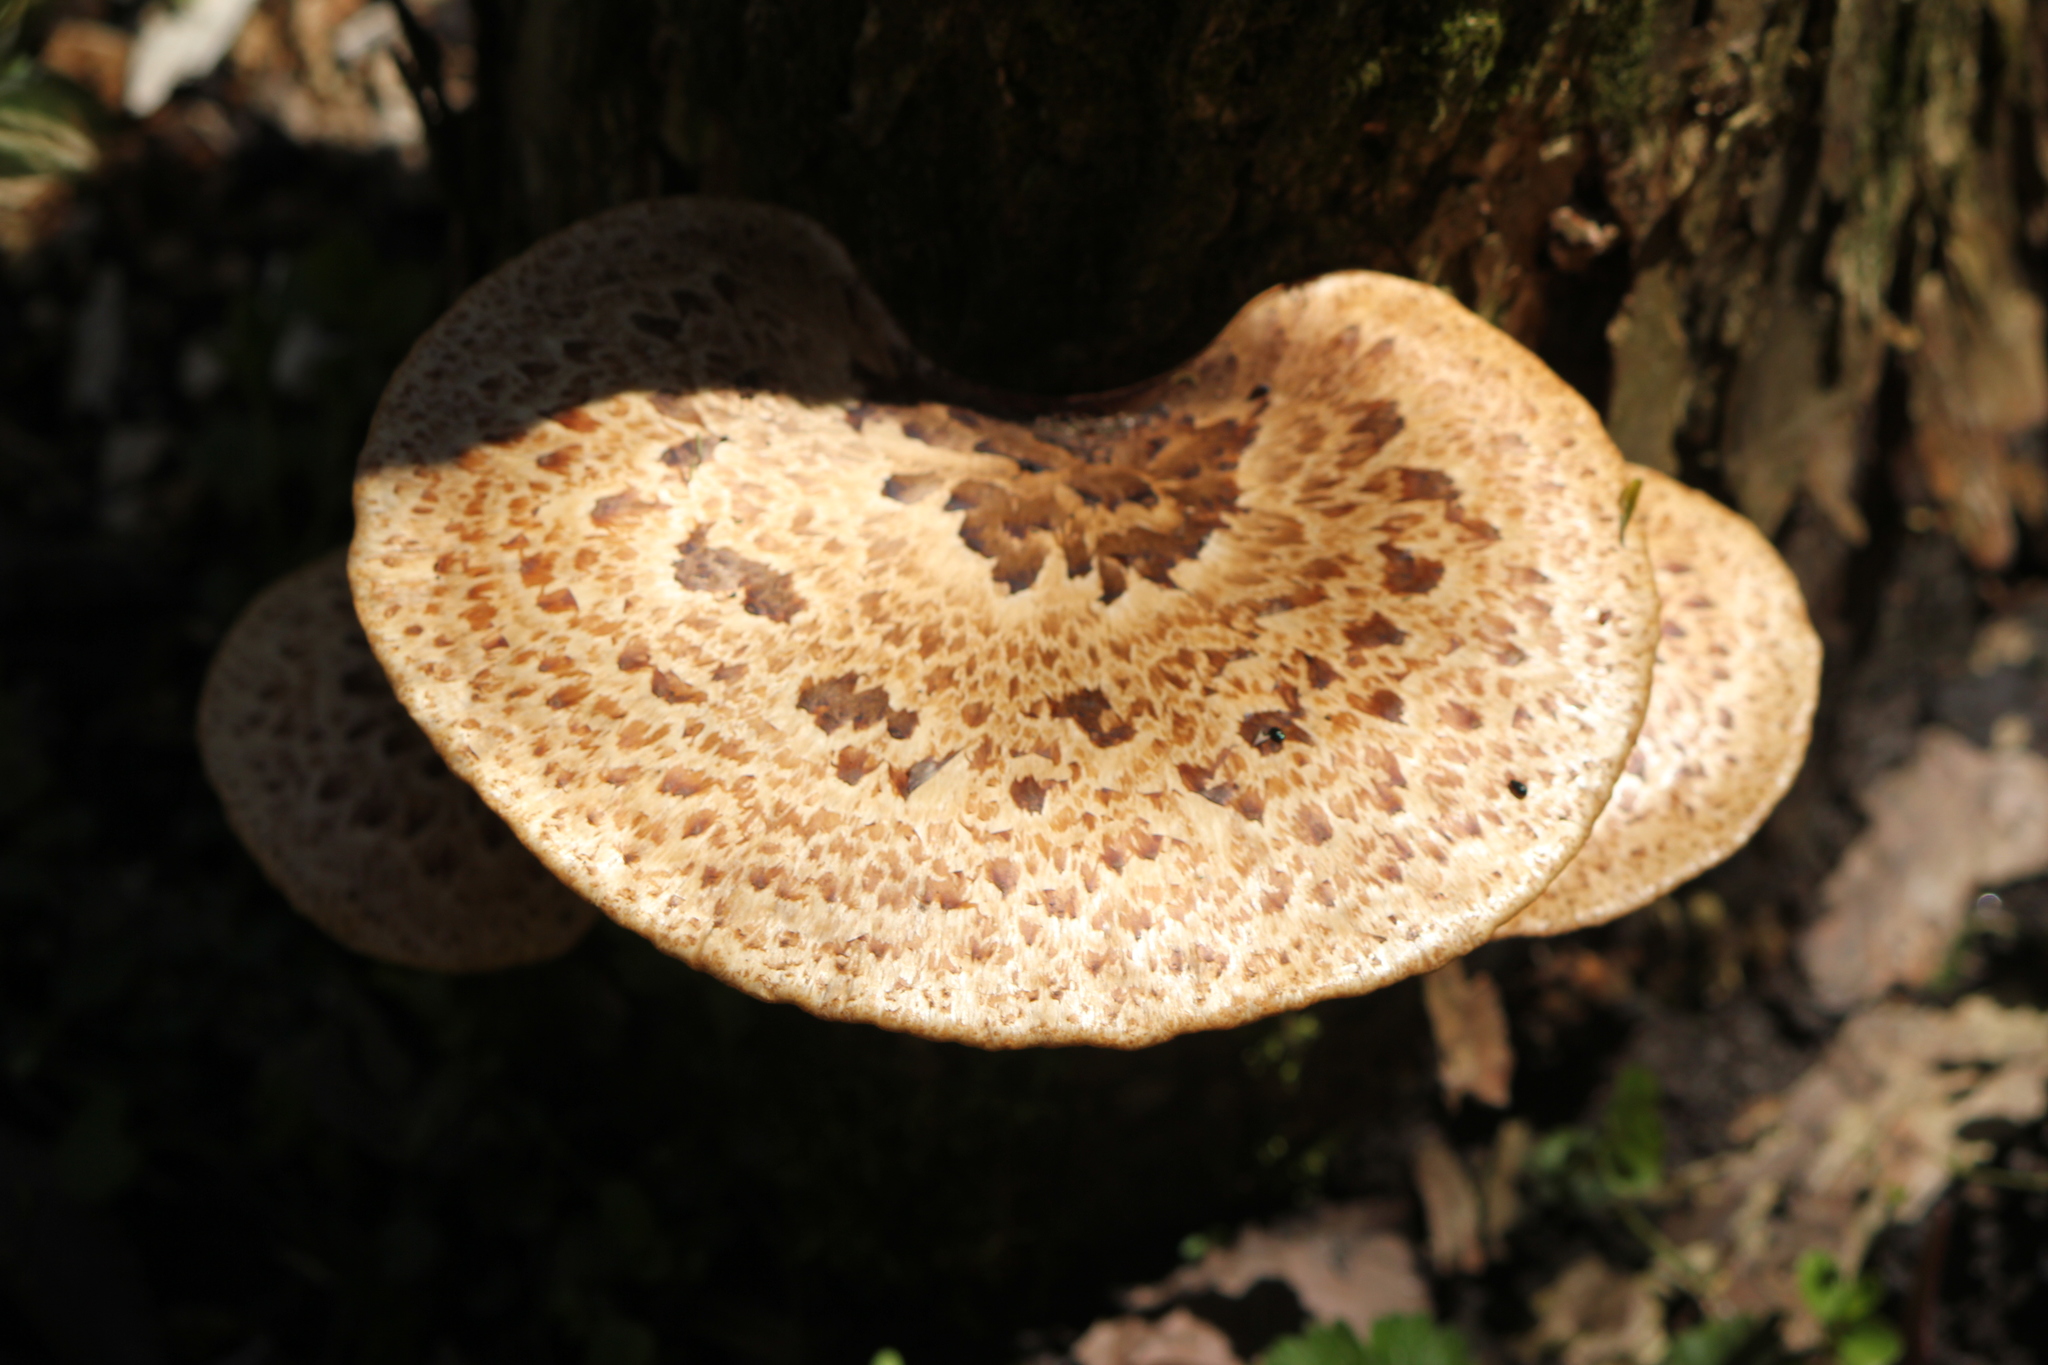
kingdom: Fungi
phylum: Basidiomycota
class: Agaricomycetes
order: Polyporales
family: Polyporaceae
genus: Cerioporus
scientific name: Cerioporus squamosus
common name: Dryad's saddle
